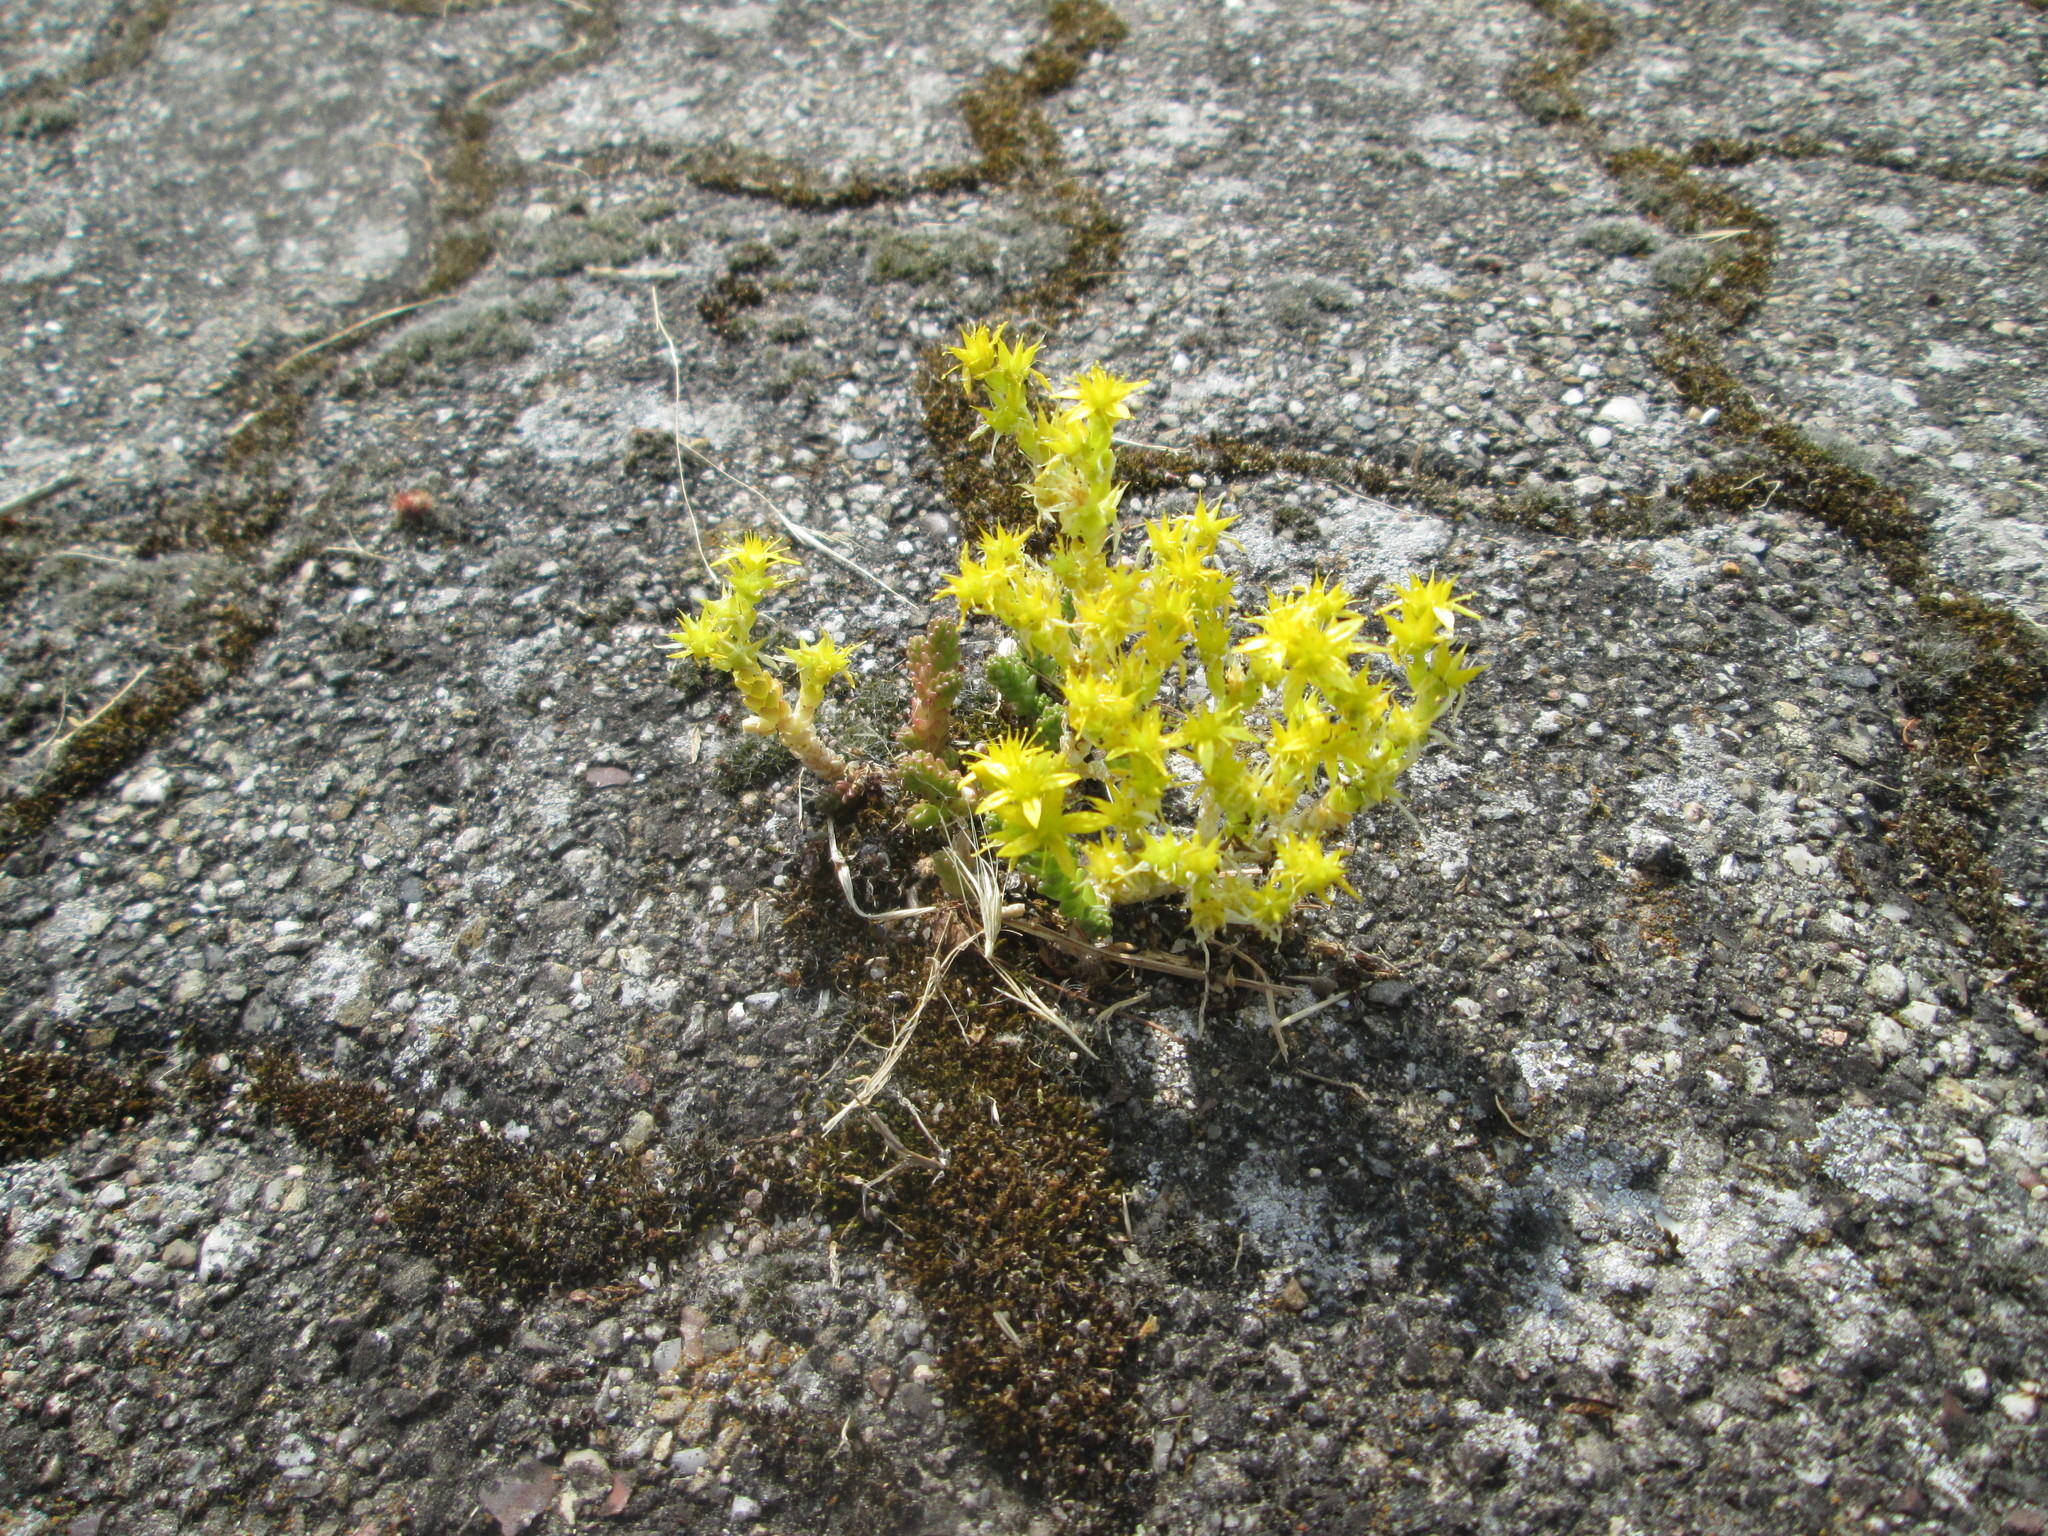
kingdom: Plantae
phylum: Tracheophyta
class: Magnoliopsida
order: Saxifragales
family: Crassulaceae
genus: Sedum
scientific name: Sedum acre
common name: Biting stonecrop
